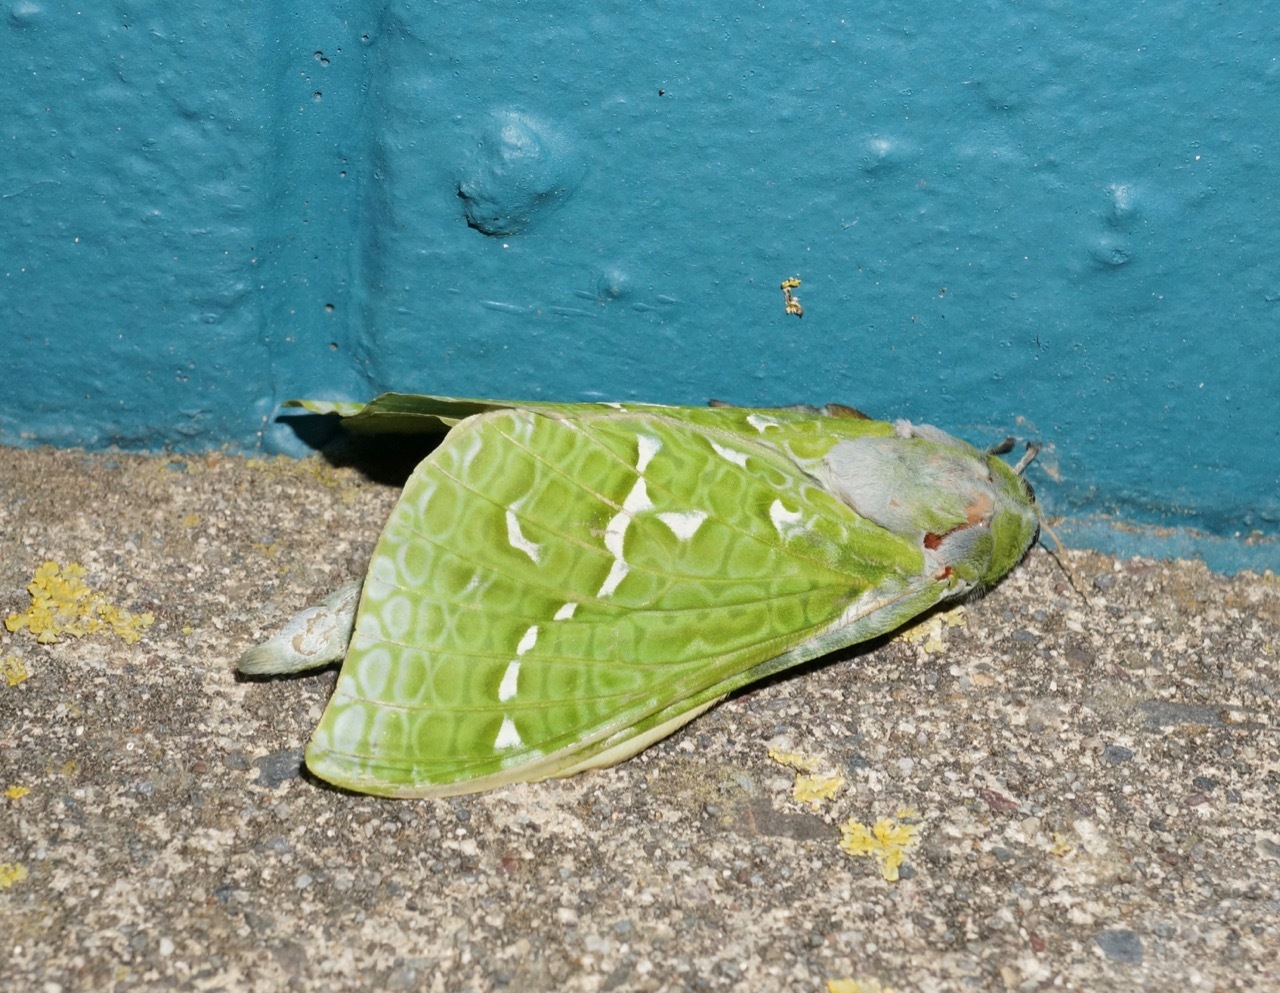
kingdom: Animalia
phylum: Arthropoda
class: Insecta
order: Lepidoptera
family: Hepialidae
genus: Aenetus
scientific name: Aenetus virescens
